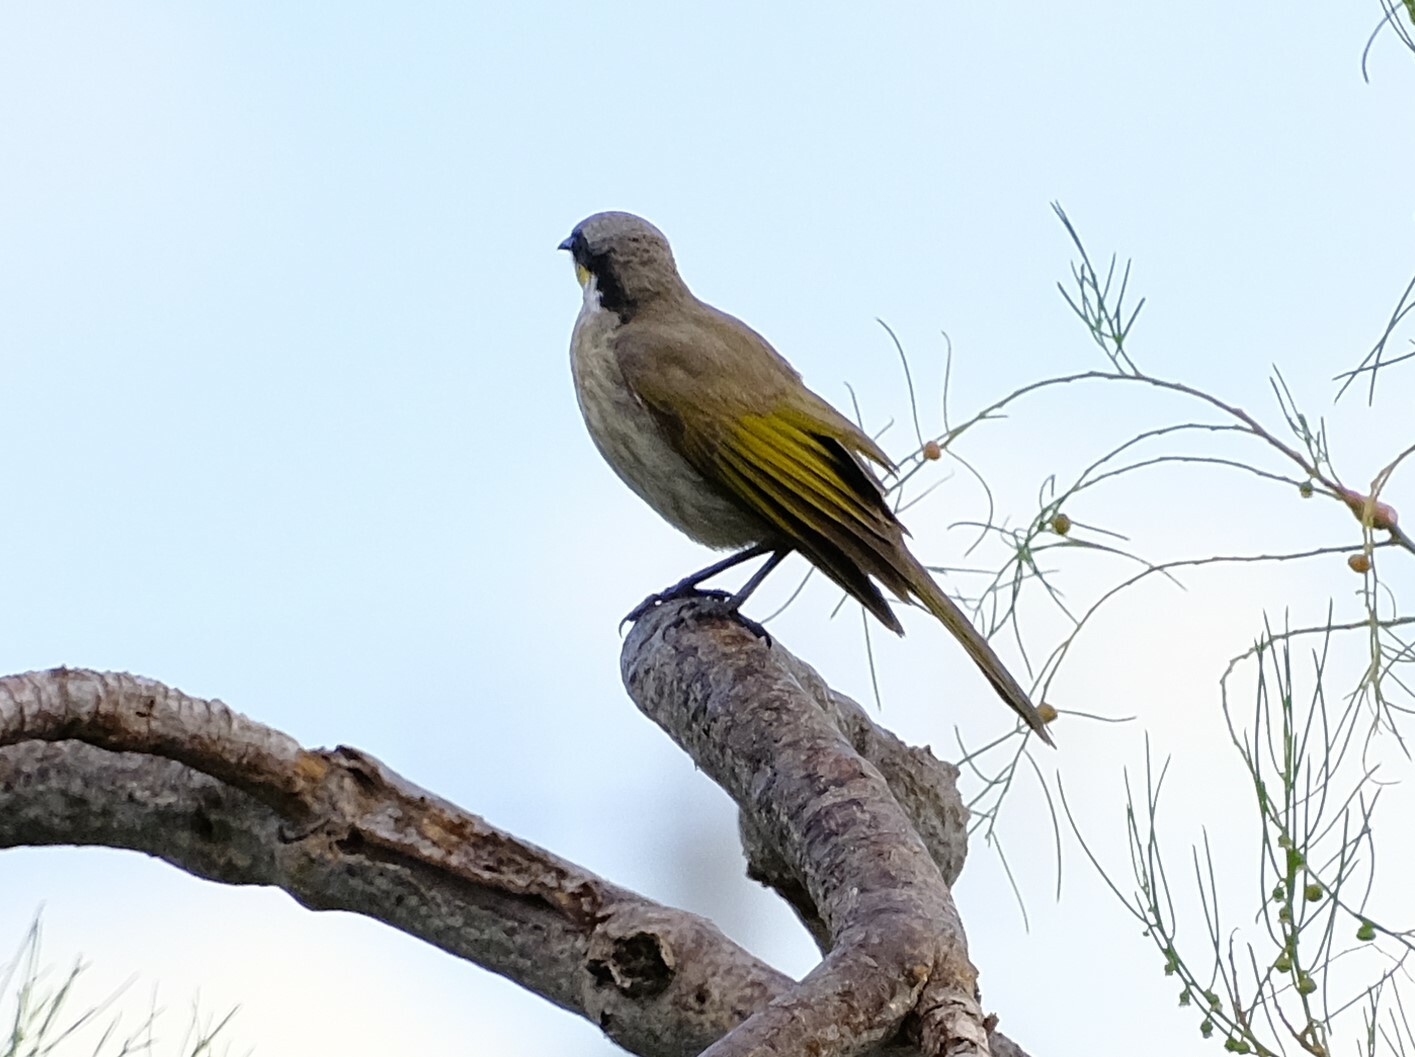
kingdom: Animalia
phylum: Chordata
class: Aves
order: Passeriformes
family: Meliphagidae
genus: Gavicalis
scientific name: Gavicalis virescens
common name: Singing honeyeater
